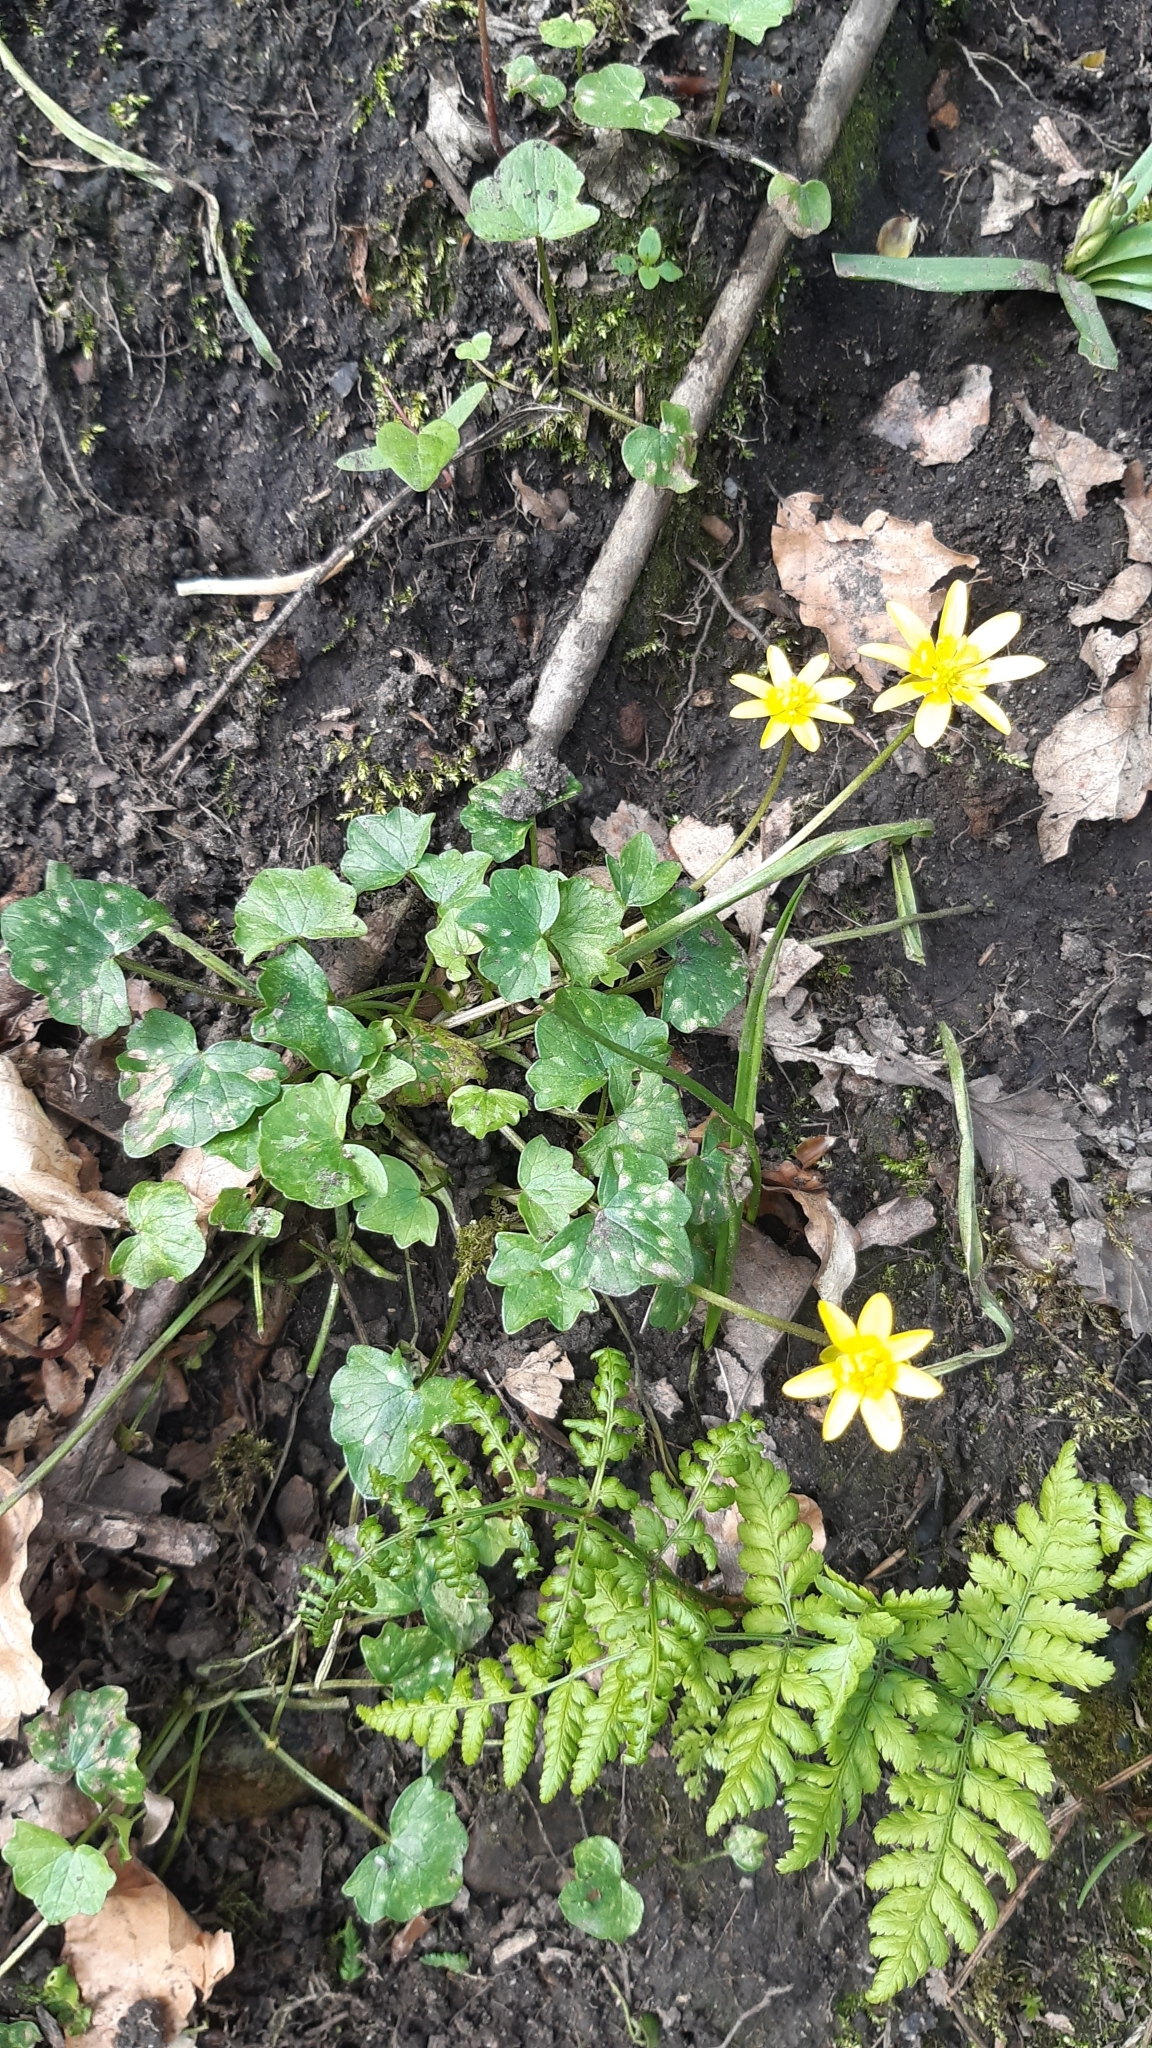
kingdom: Plantae
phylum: Tracheophyta
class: Magnoliopsida
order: Ranunculales
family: Ranunculaceae
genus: Ficaria
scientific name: Ficaria verna
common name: Lesser celandine
